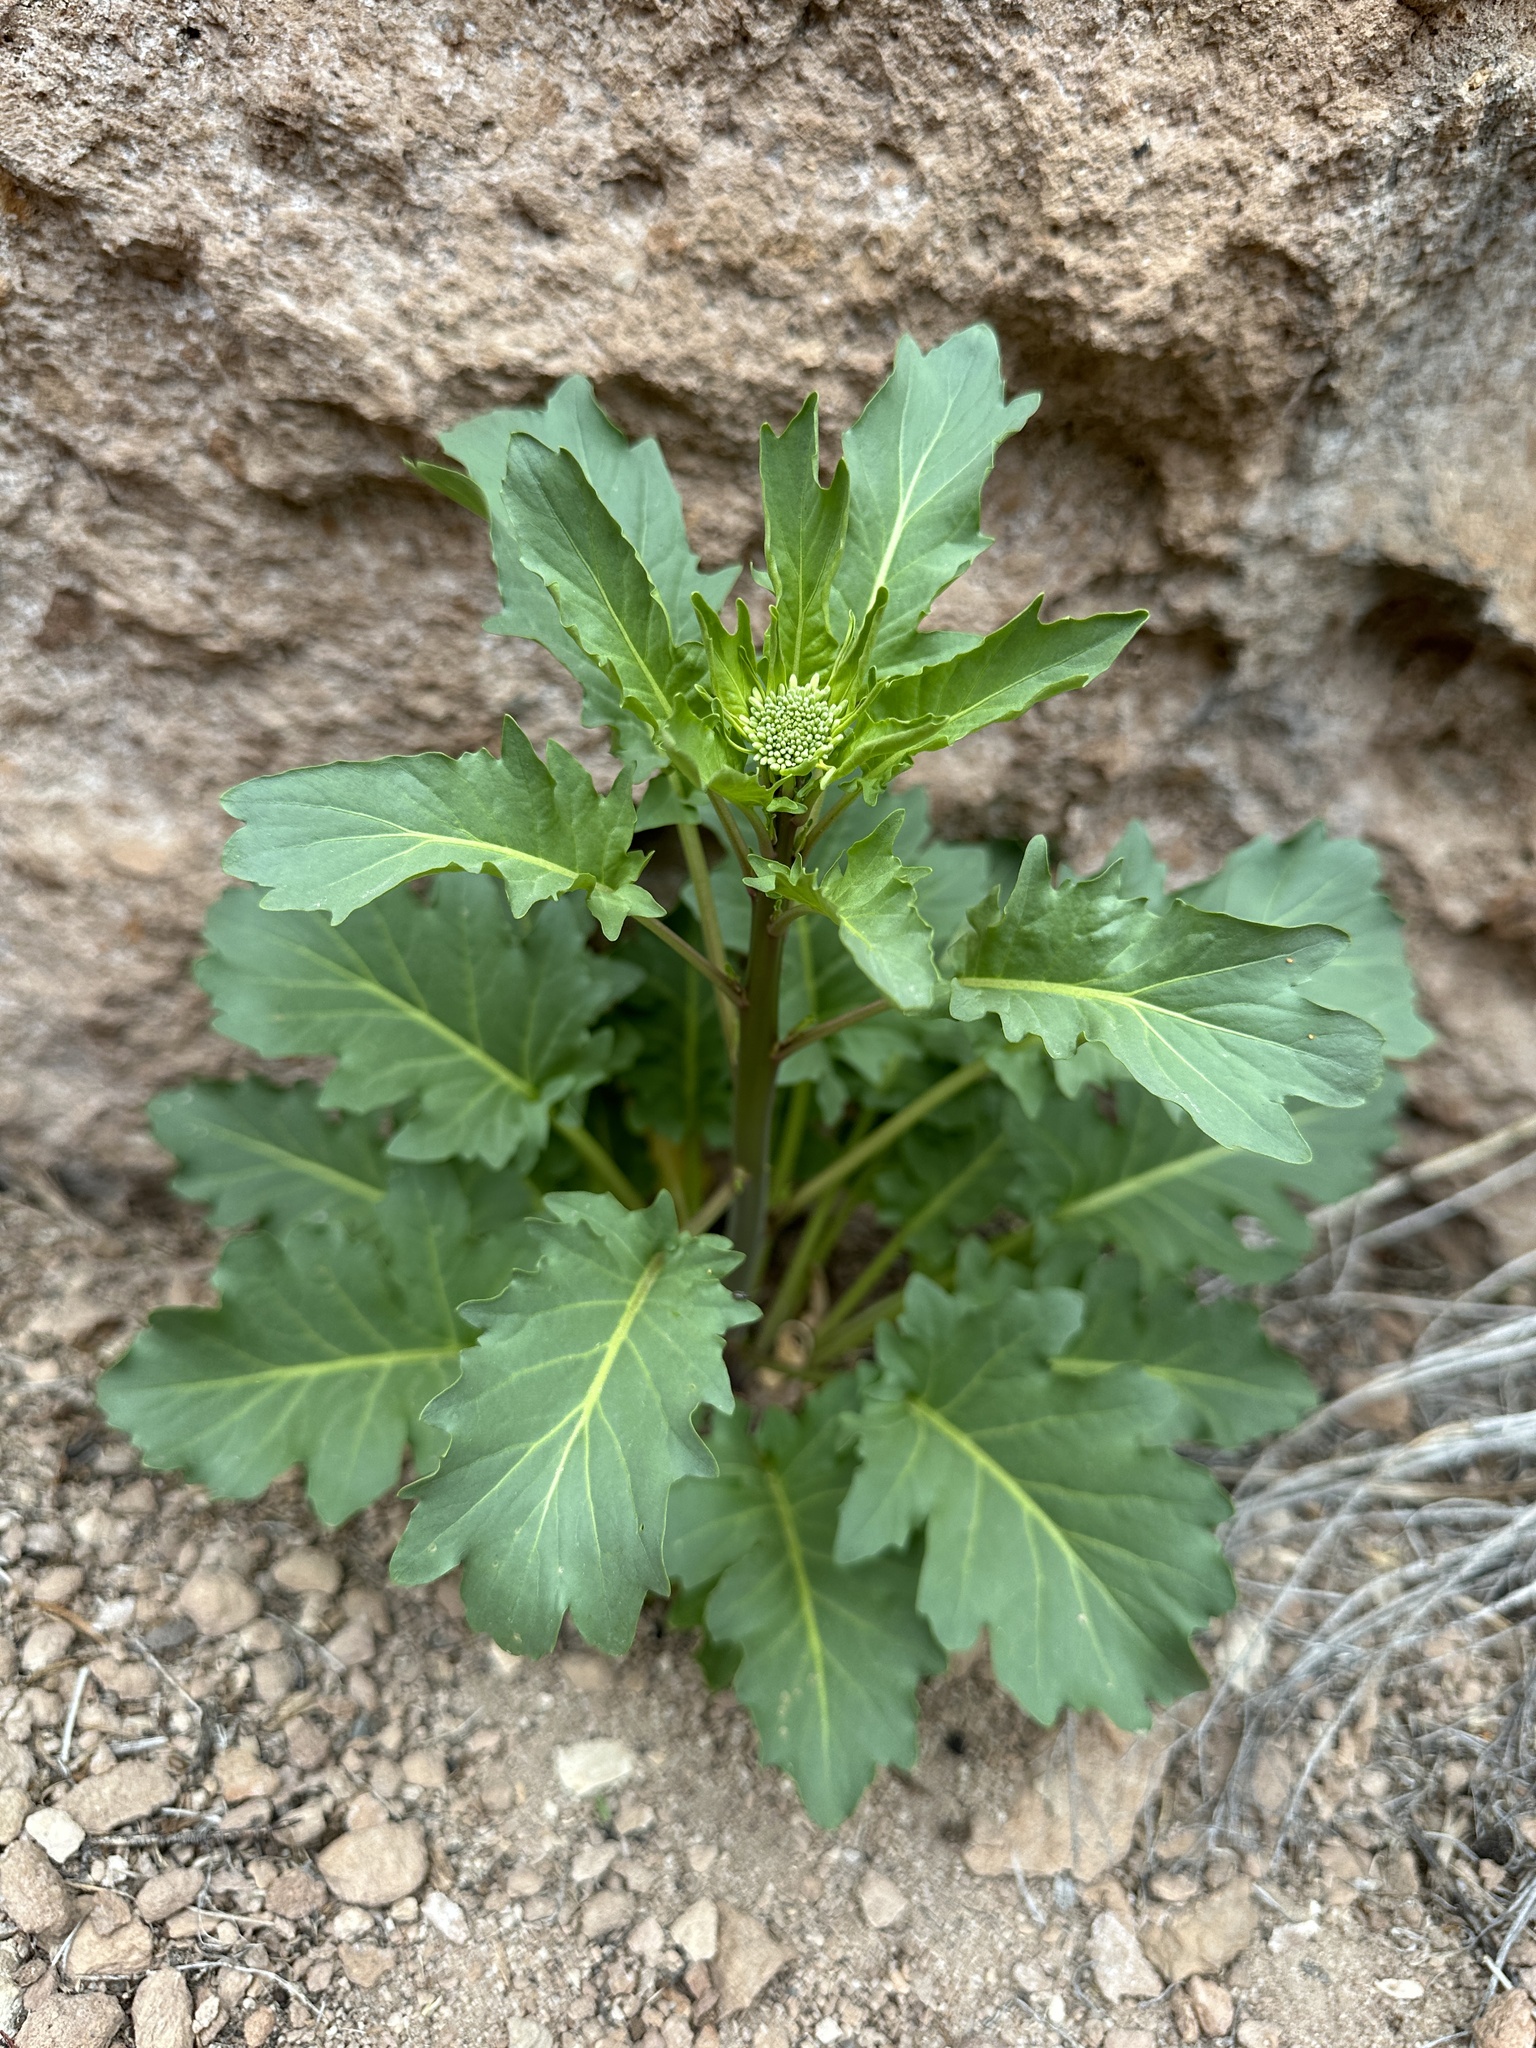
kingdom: Plantae
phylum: Tracheophyta
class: Magnoliopsida
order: Brassicales
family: Brassicaceae
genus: Thelypodium
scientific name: Thelypodium laciniatum
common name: Cut-leaved thelypody
